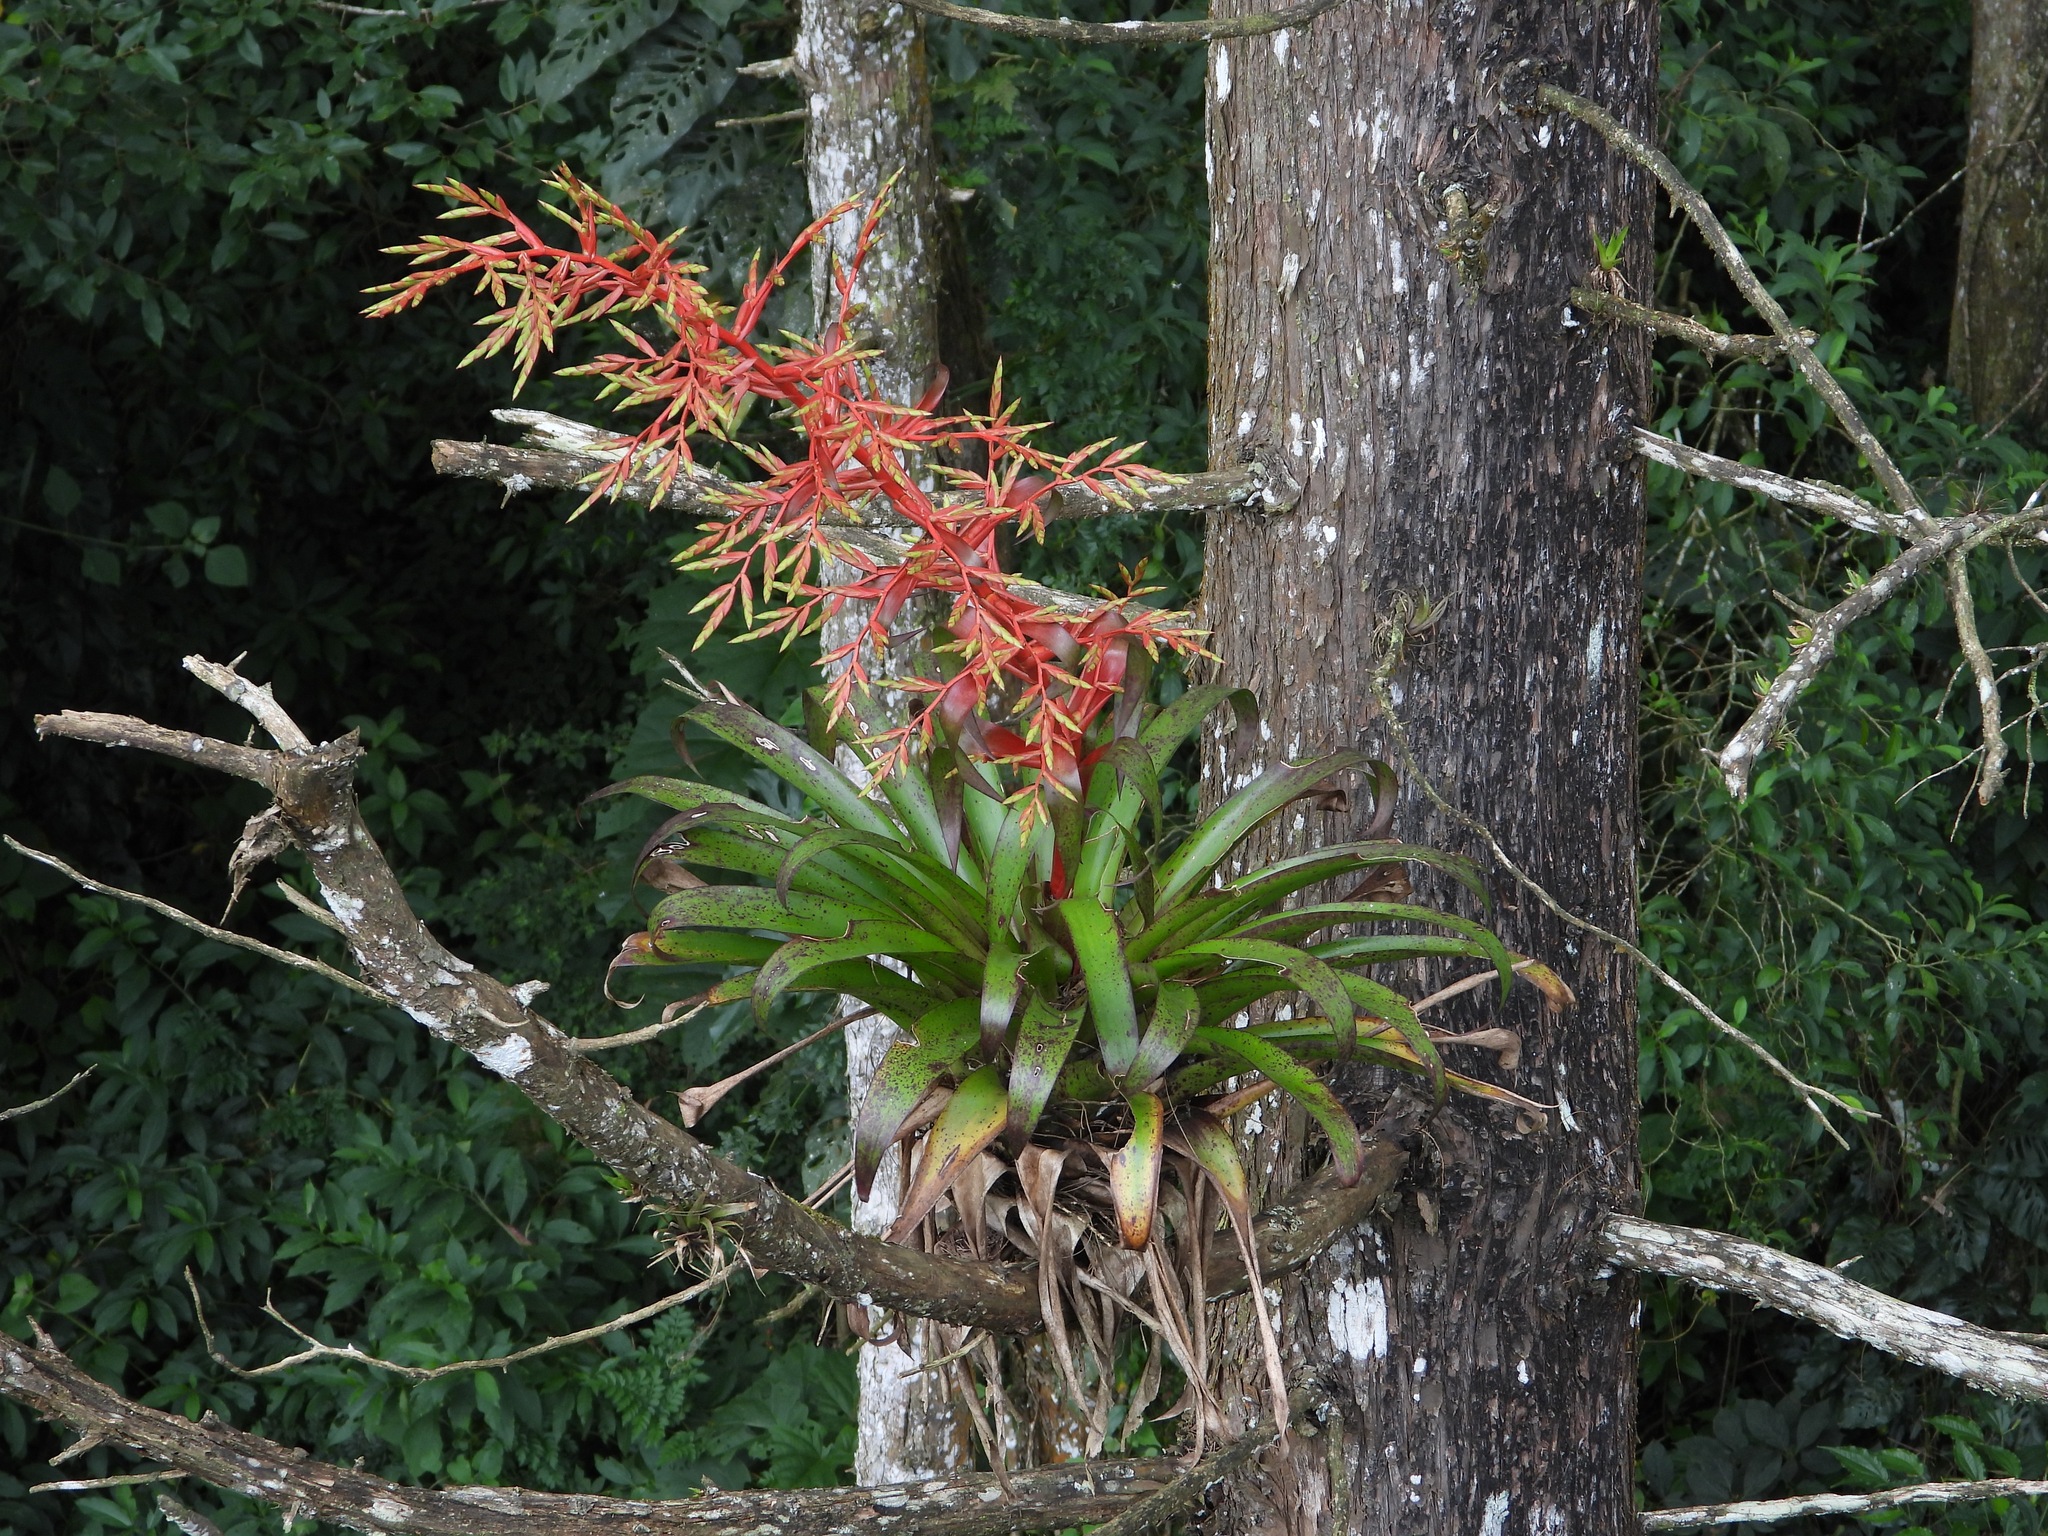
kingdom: Plantae
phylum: Tracheophyta
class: Liliopsida
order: Poales
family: Bromeliaceae
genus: Tillandsia
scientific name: Tillandsia guatemalensis
